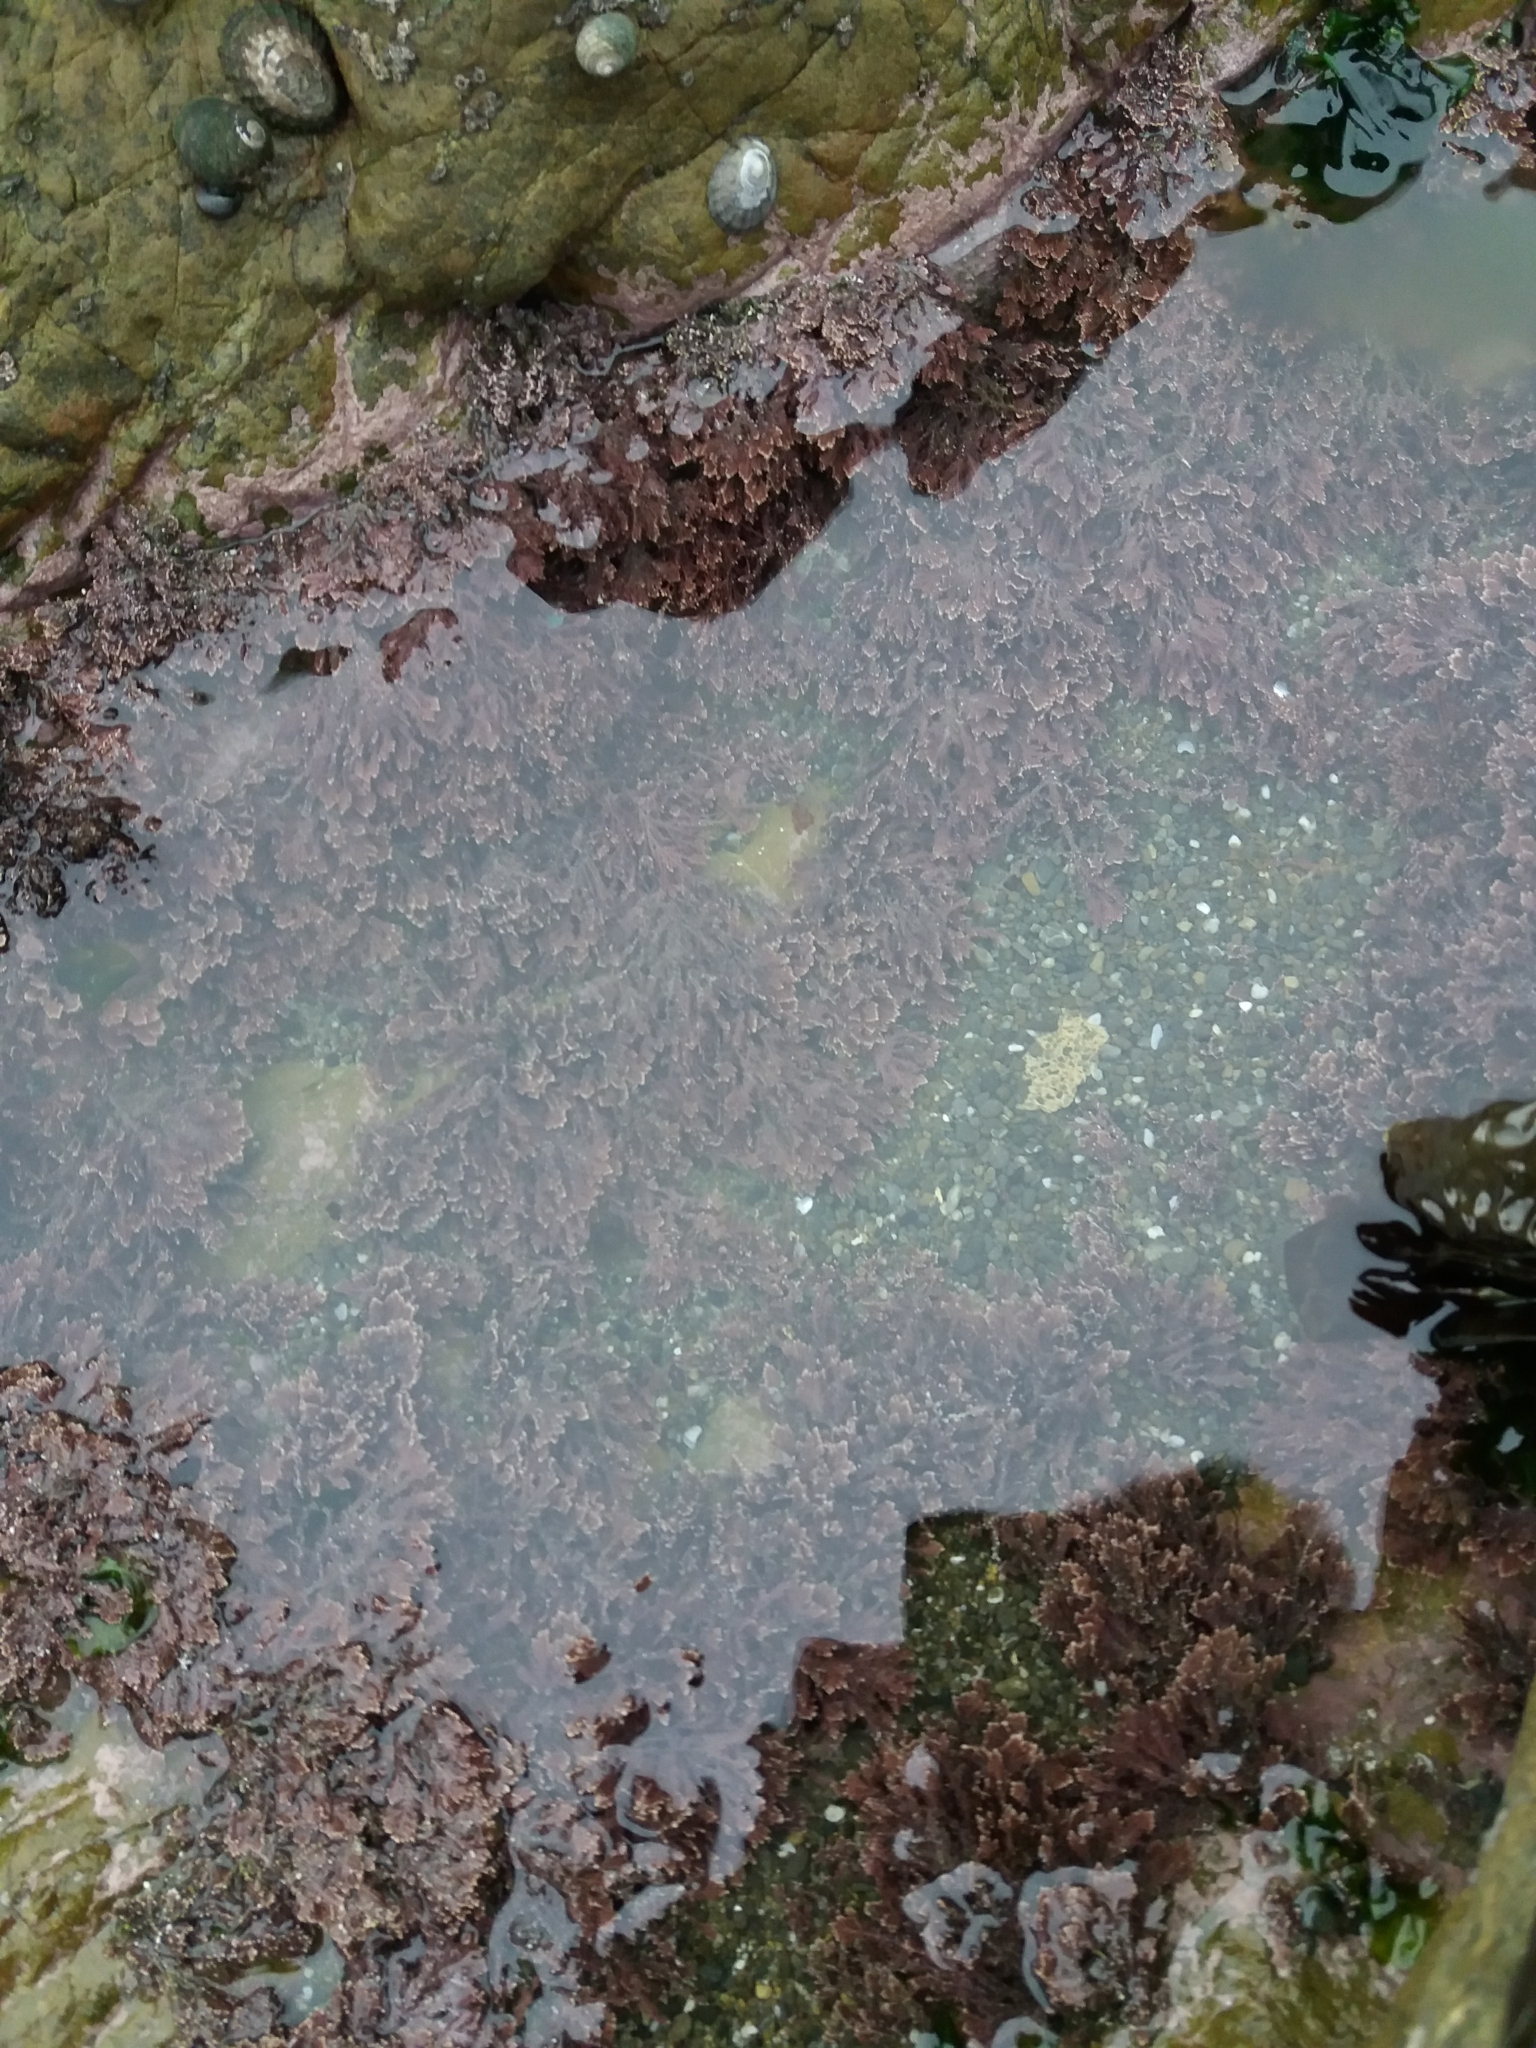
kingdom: Plantae
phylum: Rhodophyta
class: Florideophyceae
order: Corallinales
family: Corallinaceae
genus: Corallina
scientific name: Corallina officinalis
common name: Coral weed
